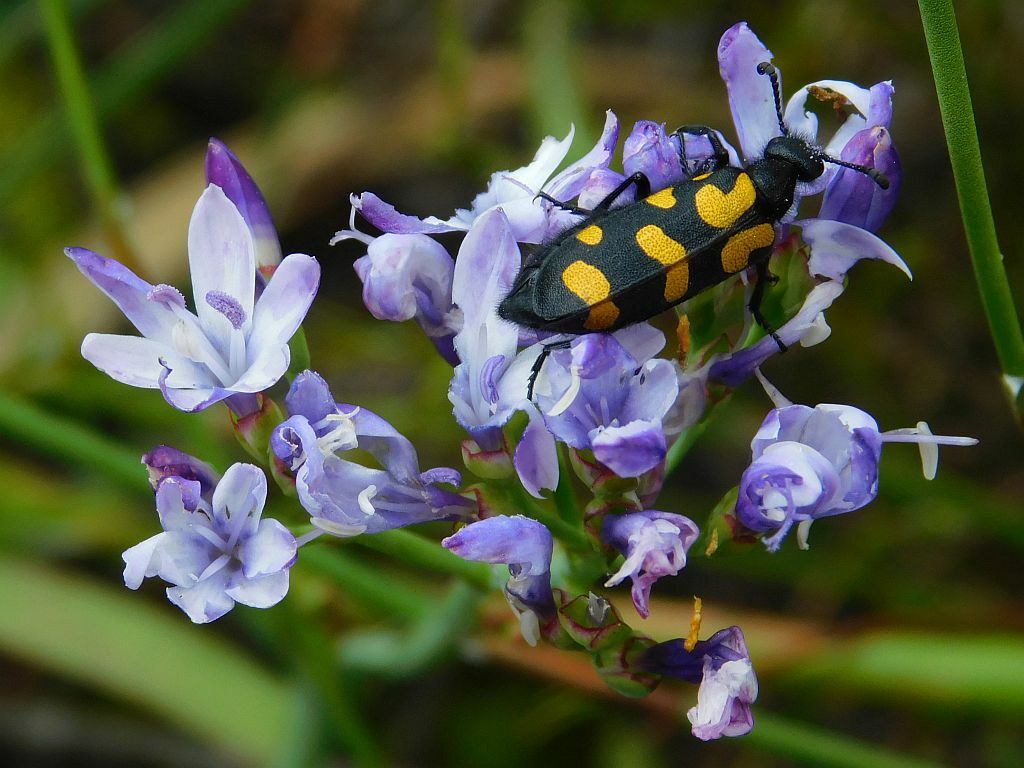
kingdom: Animalia
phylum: Arthropoda
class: Insecta
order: Coleoptera
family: Meloidae
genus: Ceroctis
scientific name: Ceroctis capensis
